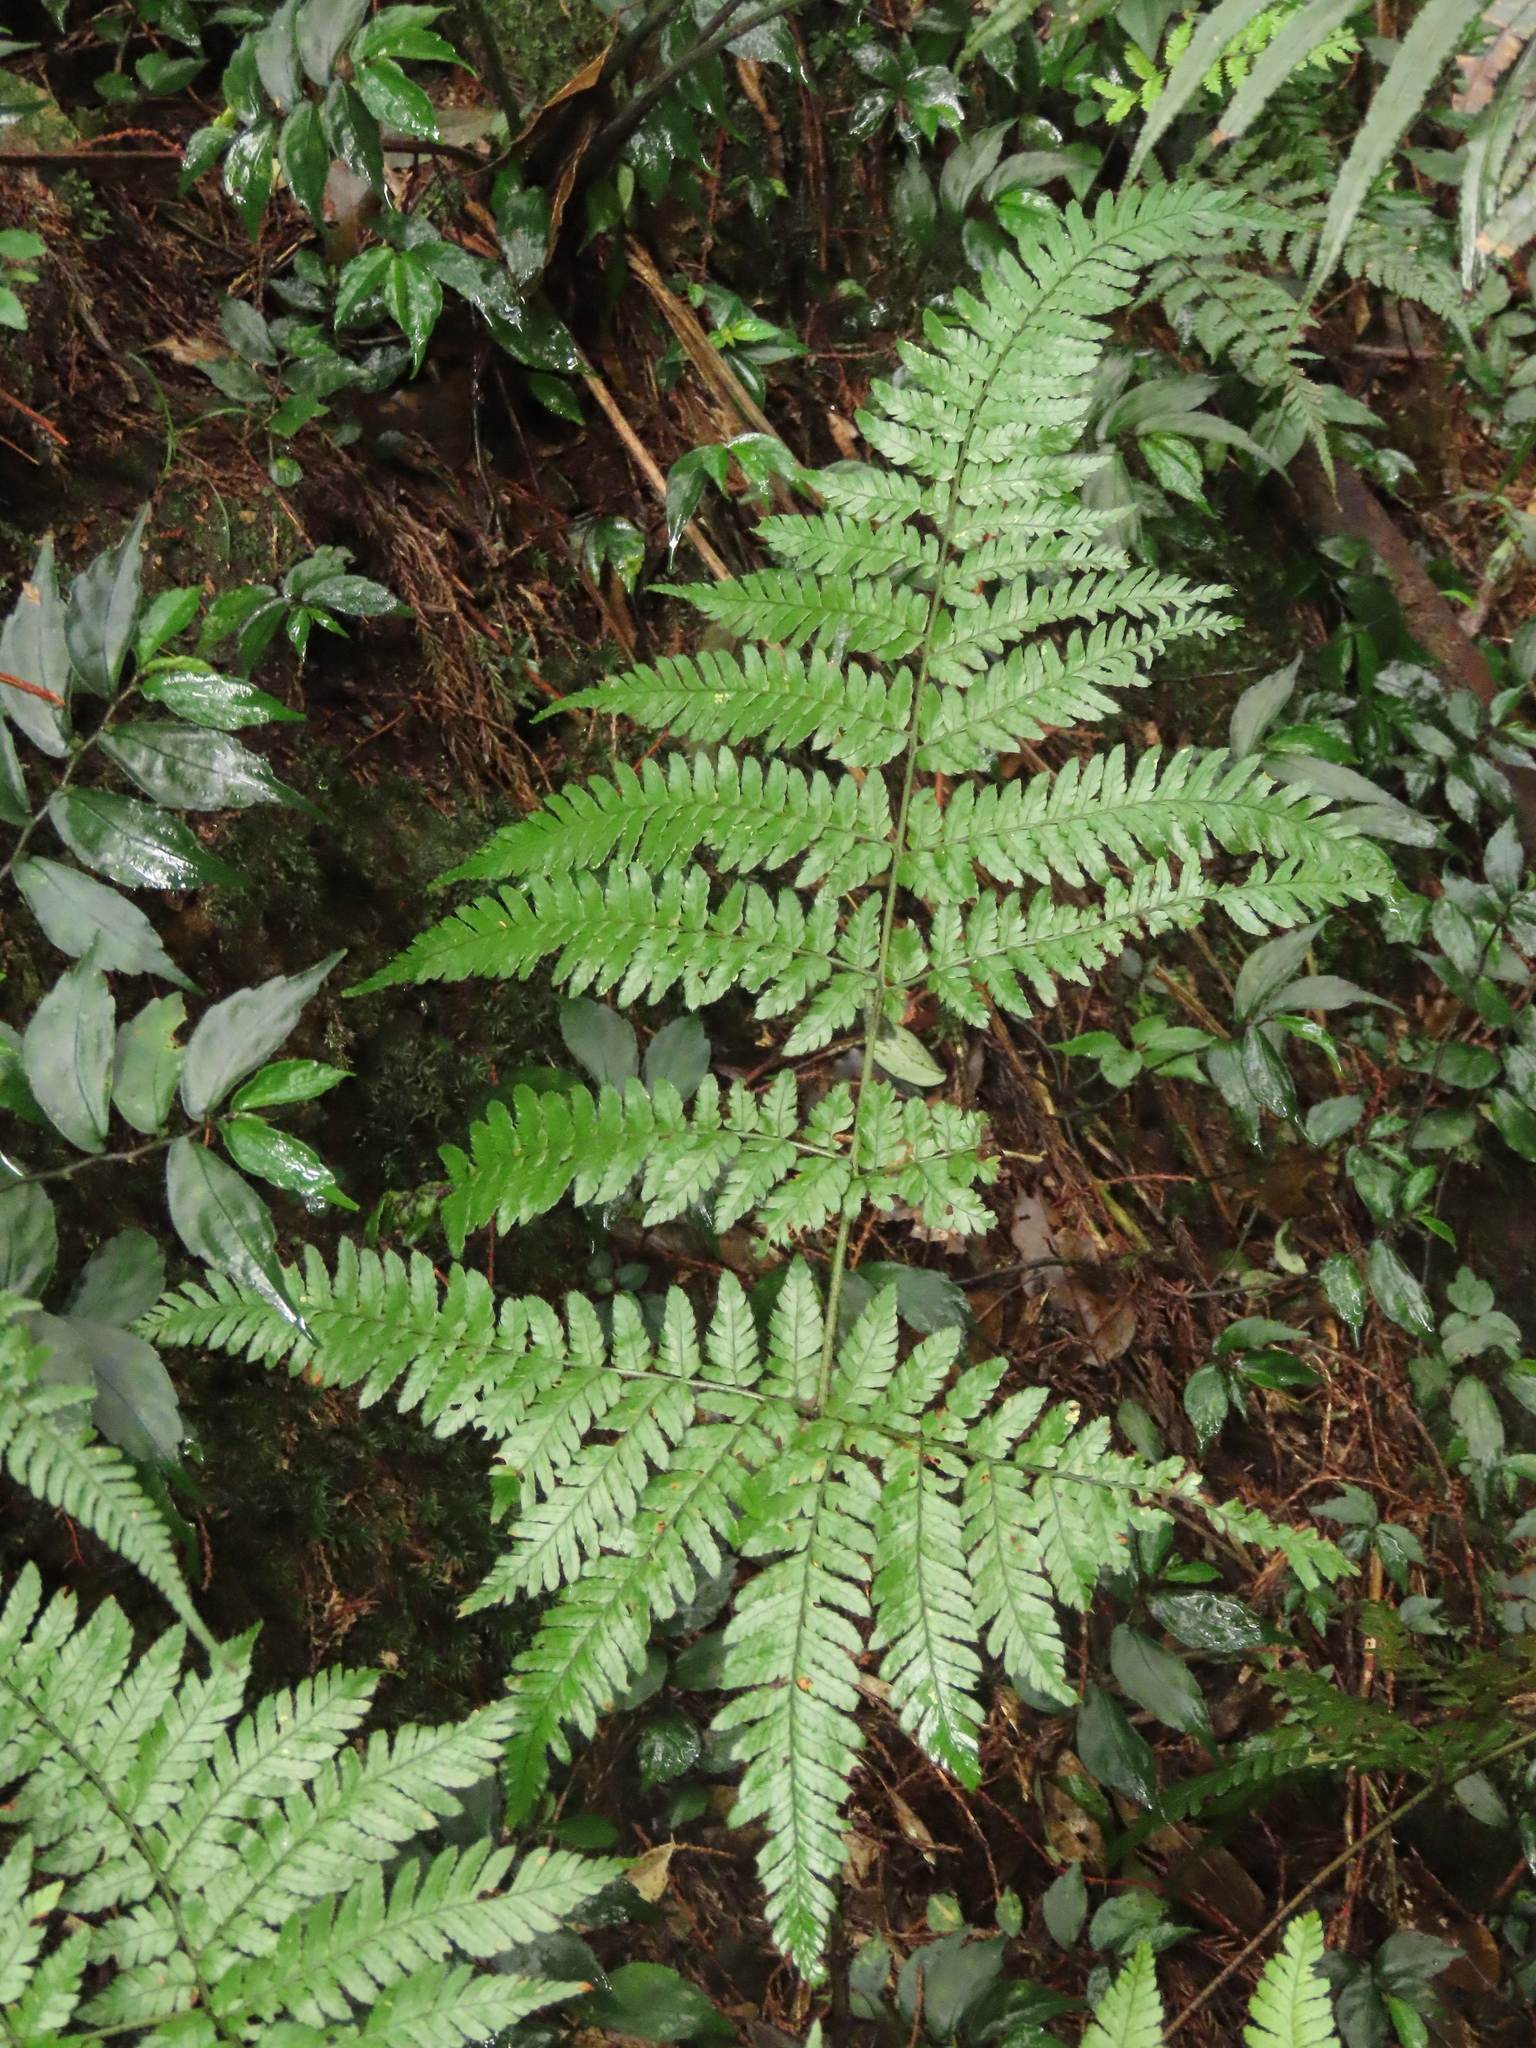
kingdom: Plantae
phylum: Tracheophyta
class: Polypodiopsida
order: Polypodiales
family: Dryopteridaceae
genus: Dryopteris
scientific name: Dryopteris formosana
